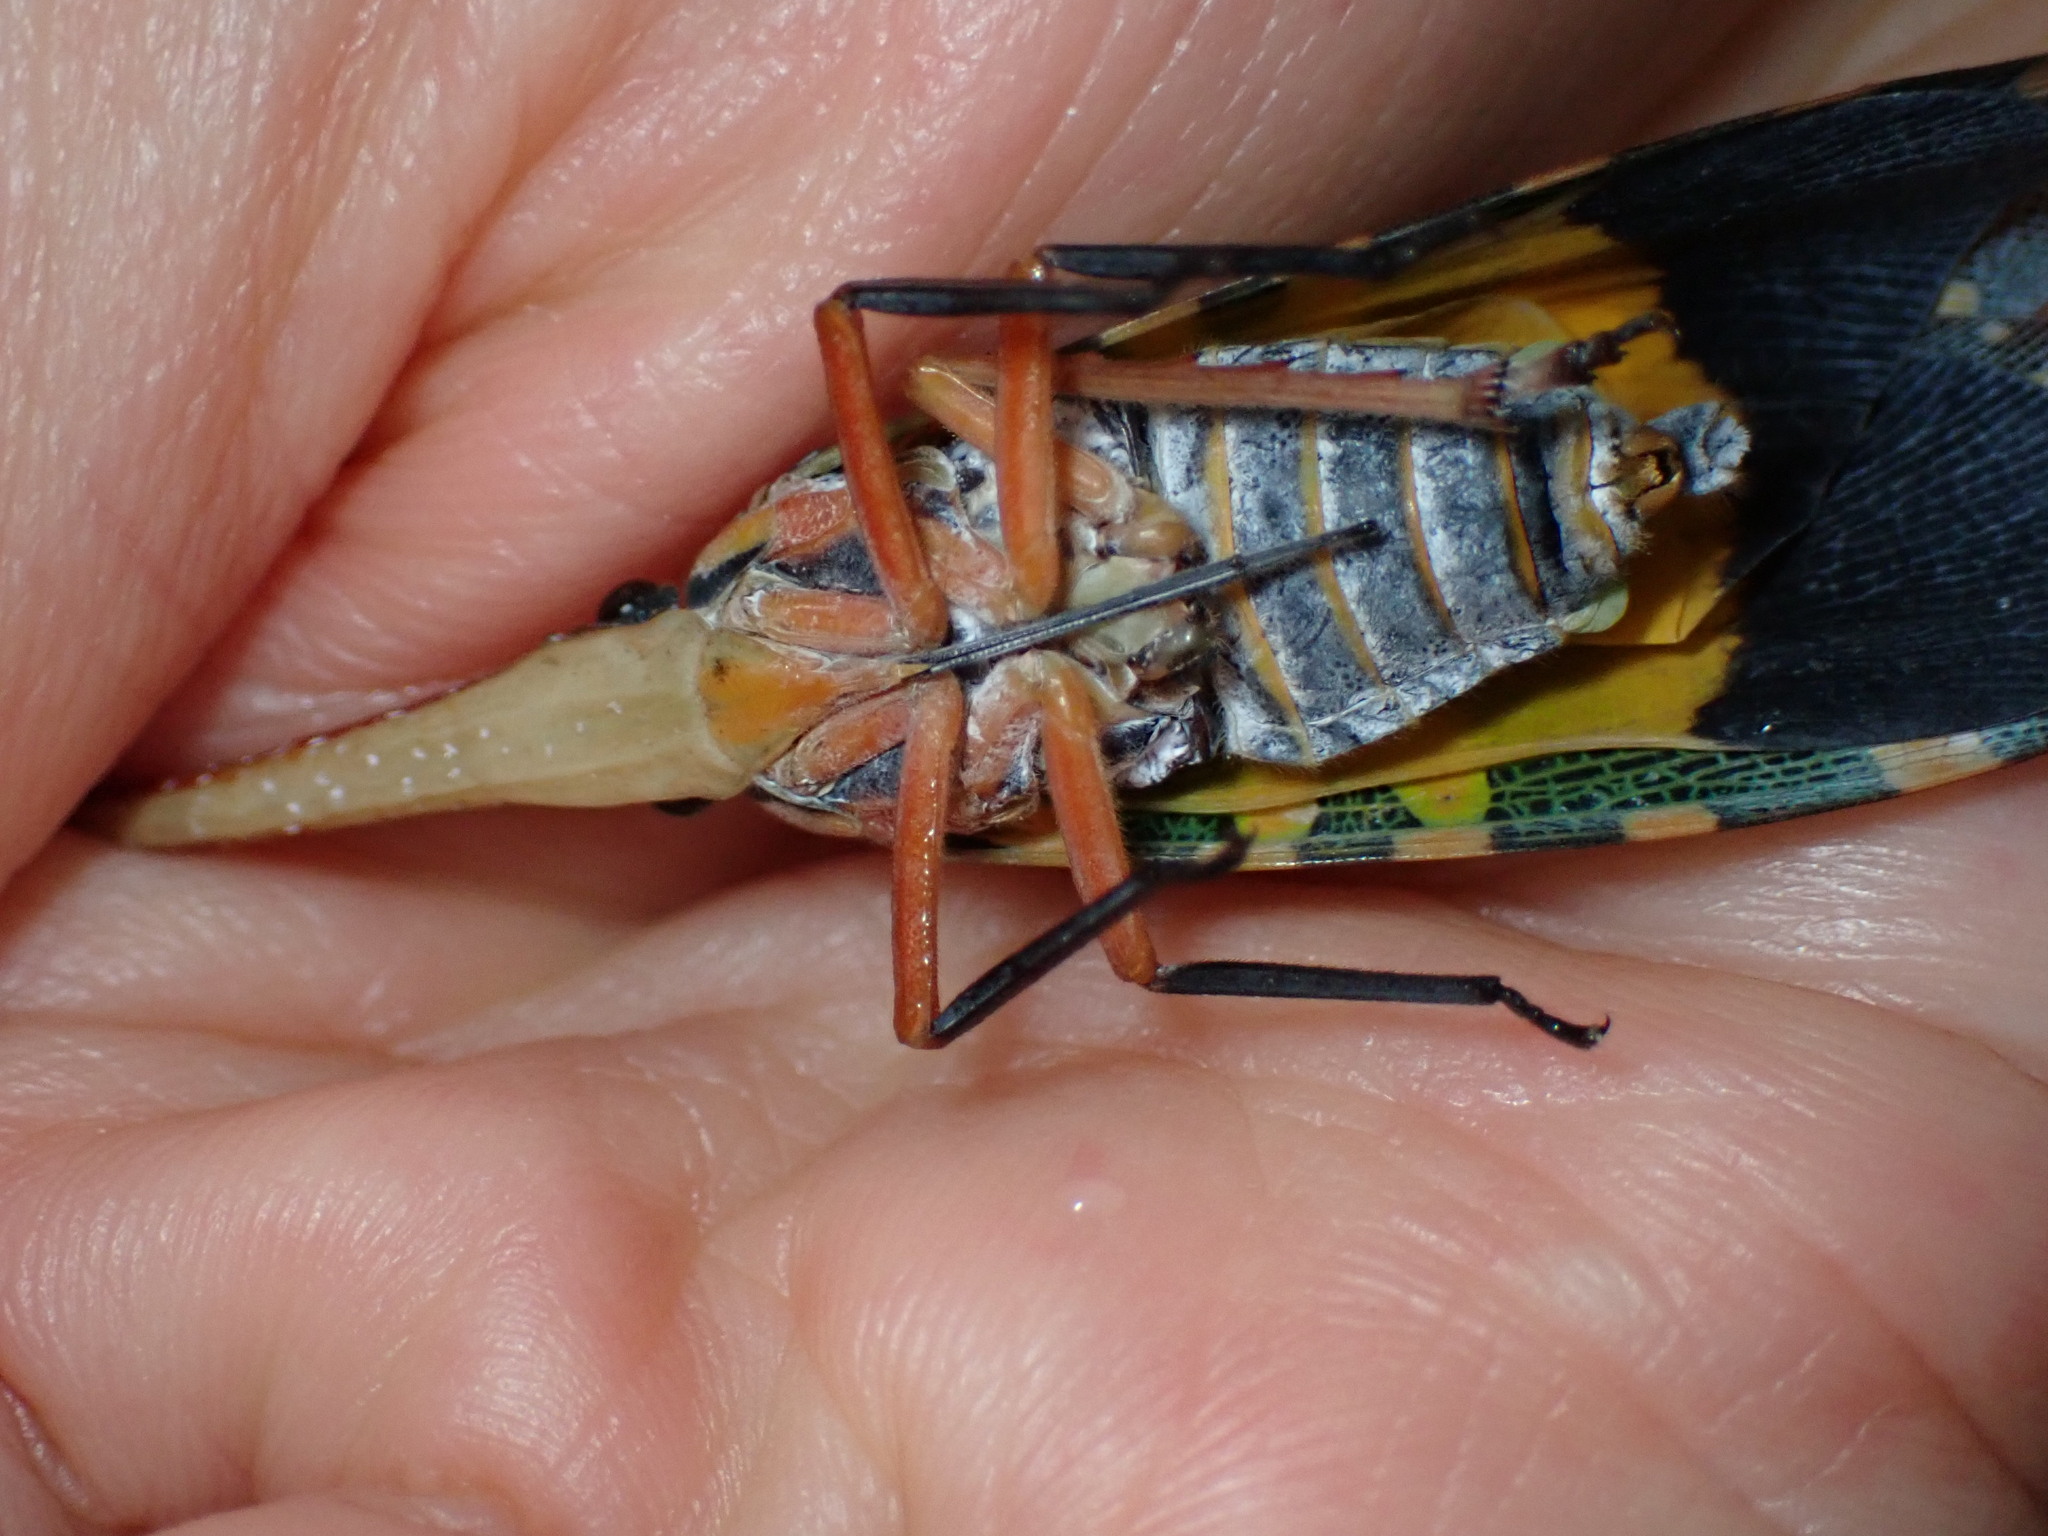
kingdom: Animalia
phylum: Arthropoda
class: Insecta
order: Hemiptera
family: Fulgoridae
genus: Pyrops
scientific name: Pyrops candelaria
